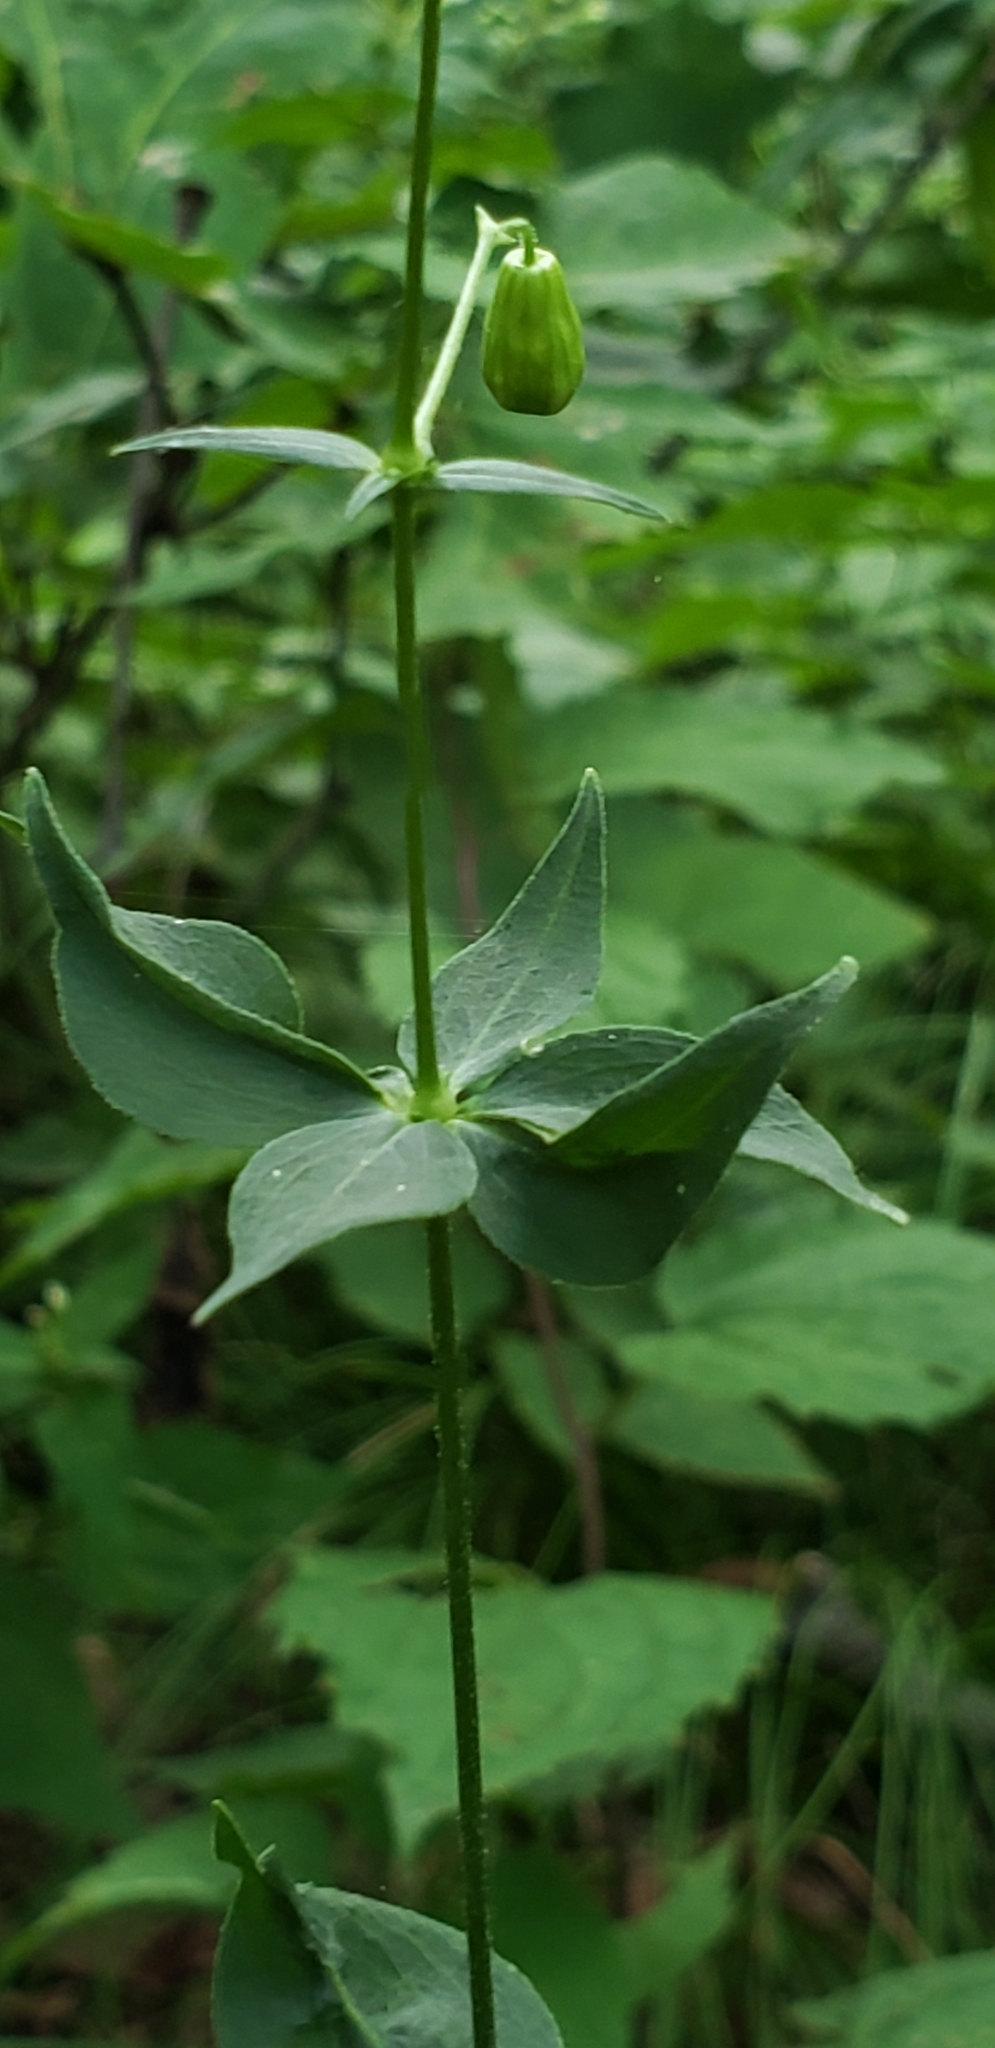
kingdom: Plantae
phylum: Tracheophyta
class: Magnoliopsida
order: Caryophyllales
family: Caryophyllaceae
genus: Silene
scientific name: Silene stellata
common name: Starry campion
